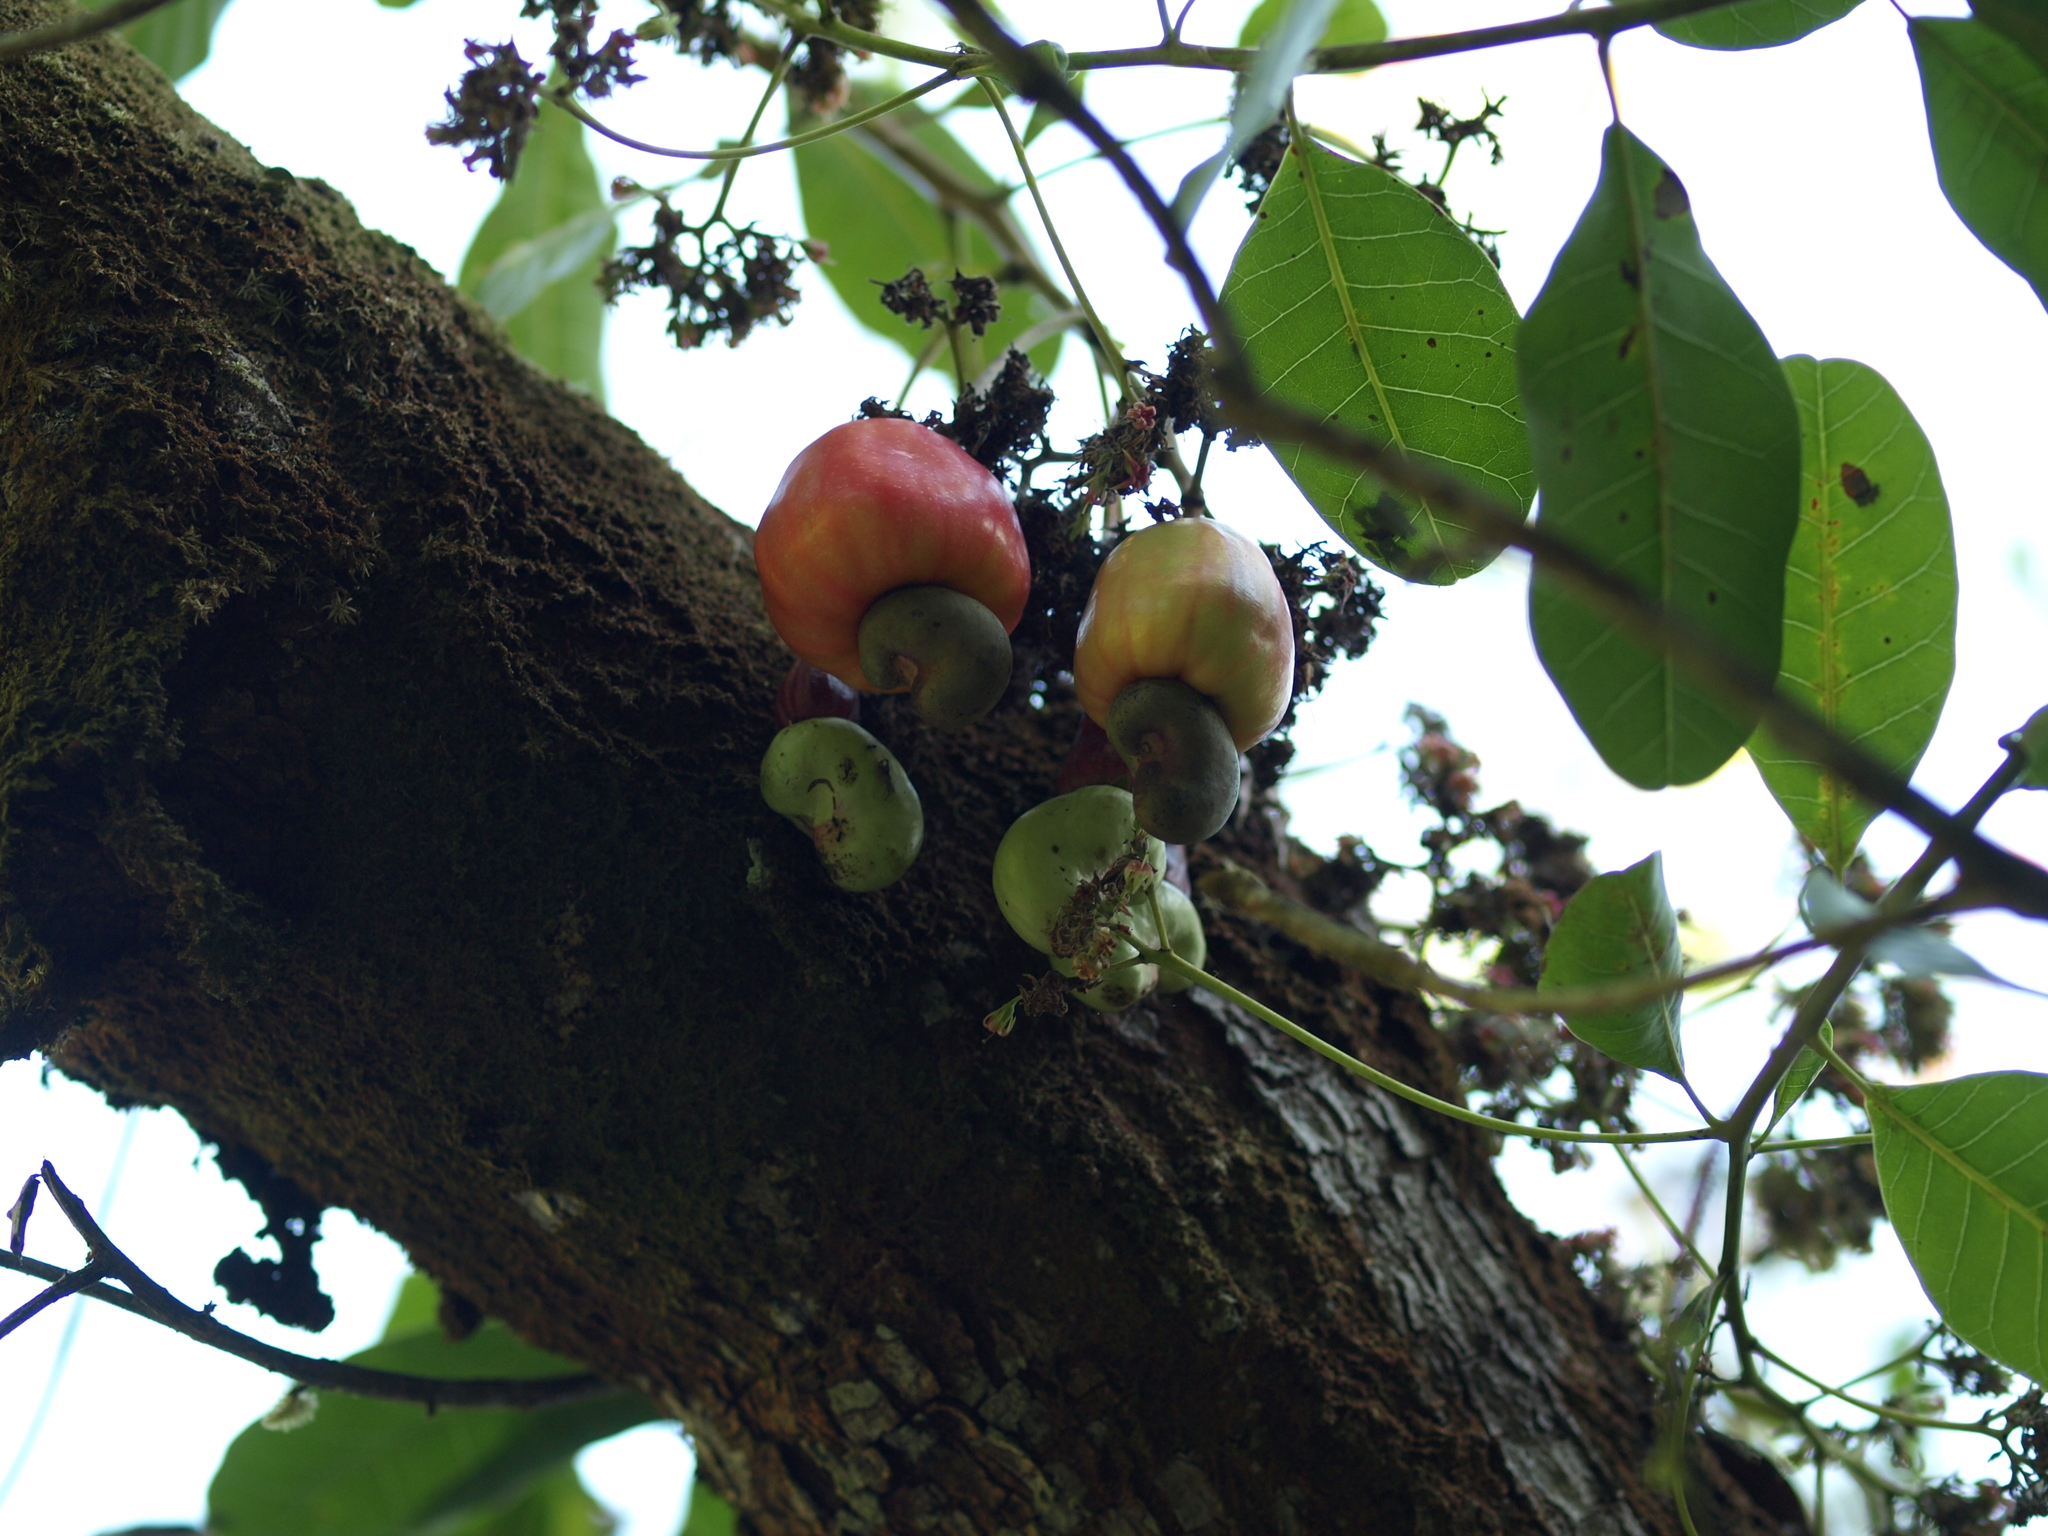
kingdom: Plantae
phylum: Tracheophyta
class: Magnoliopsida
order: Sapindales
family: Anacardiaceae
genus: Anacardium
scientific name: Anacardium occidentale
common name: Cashew
